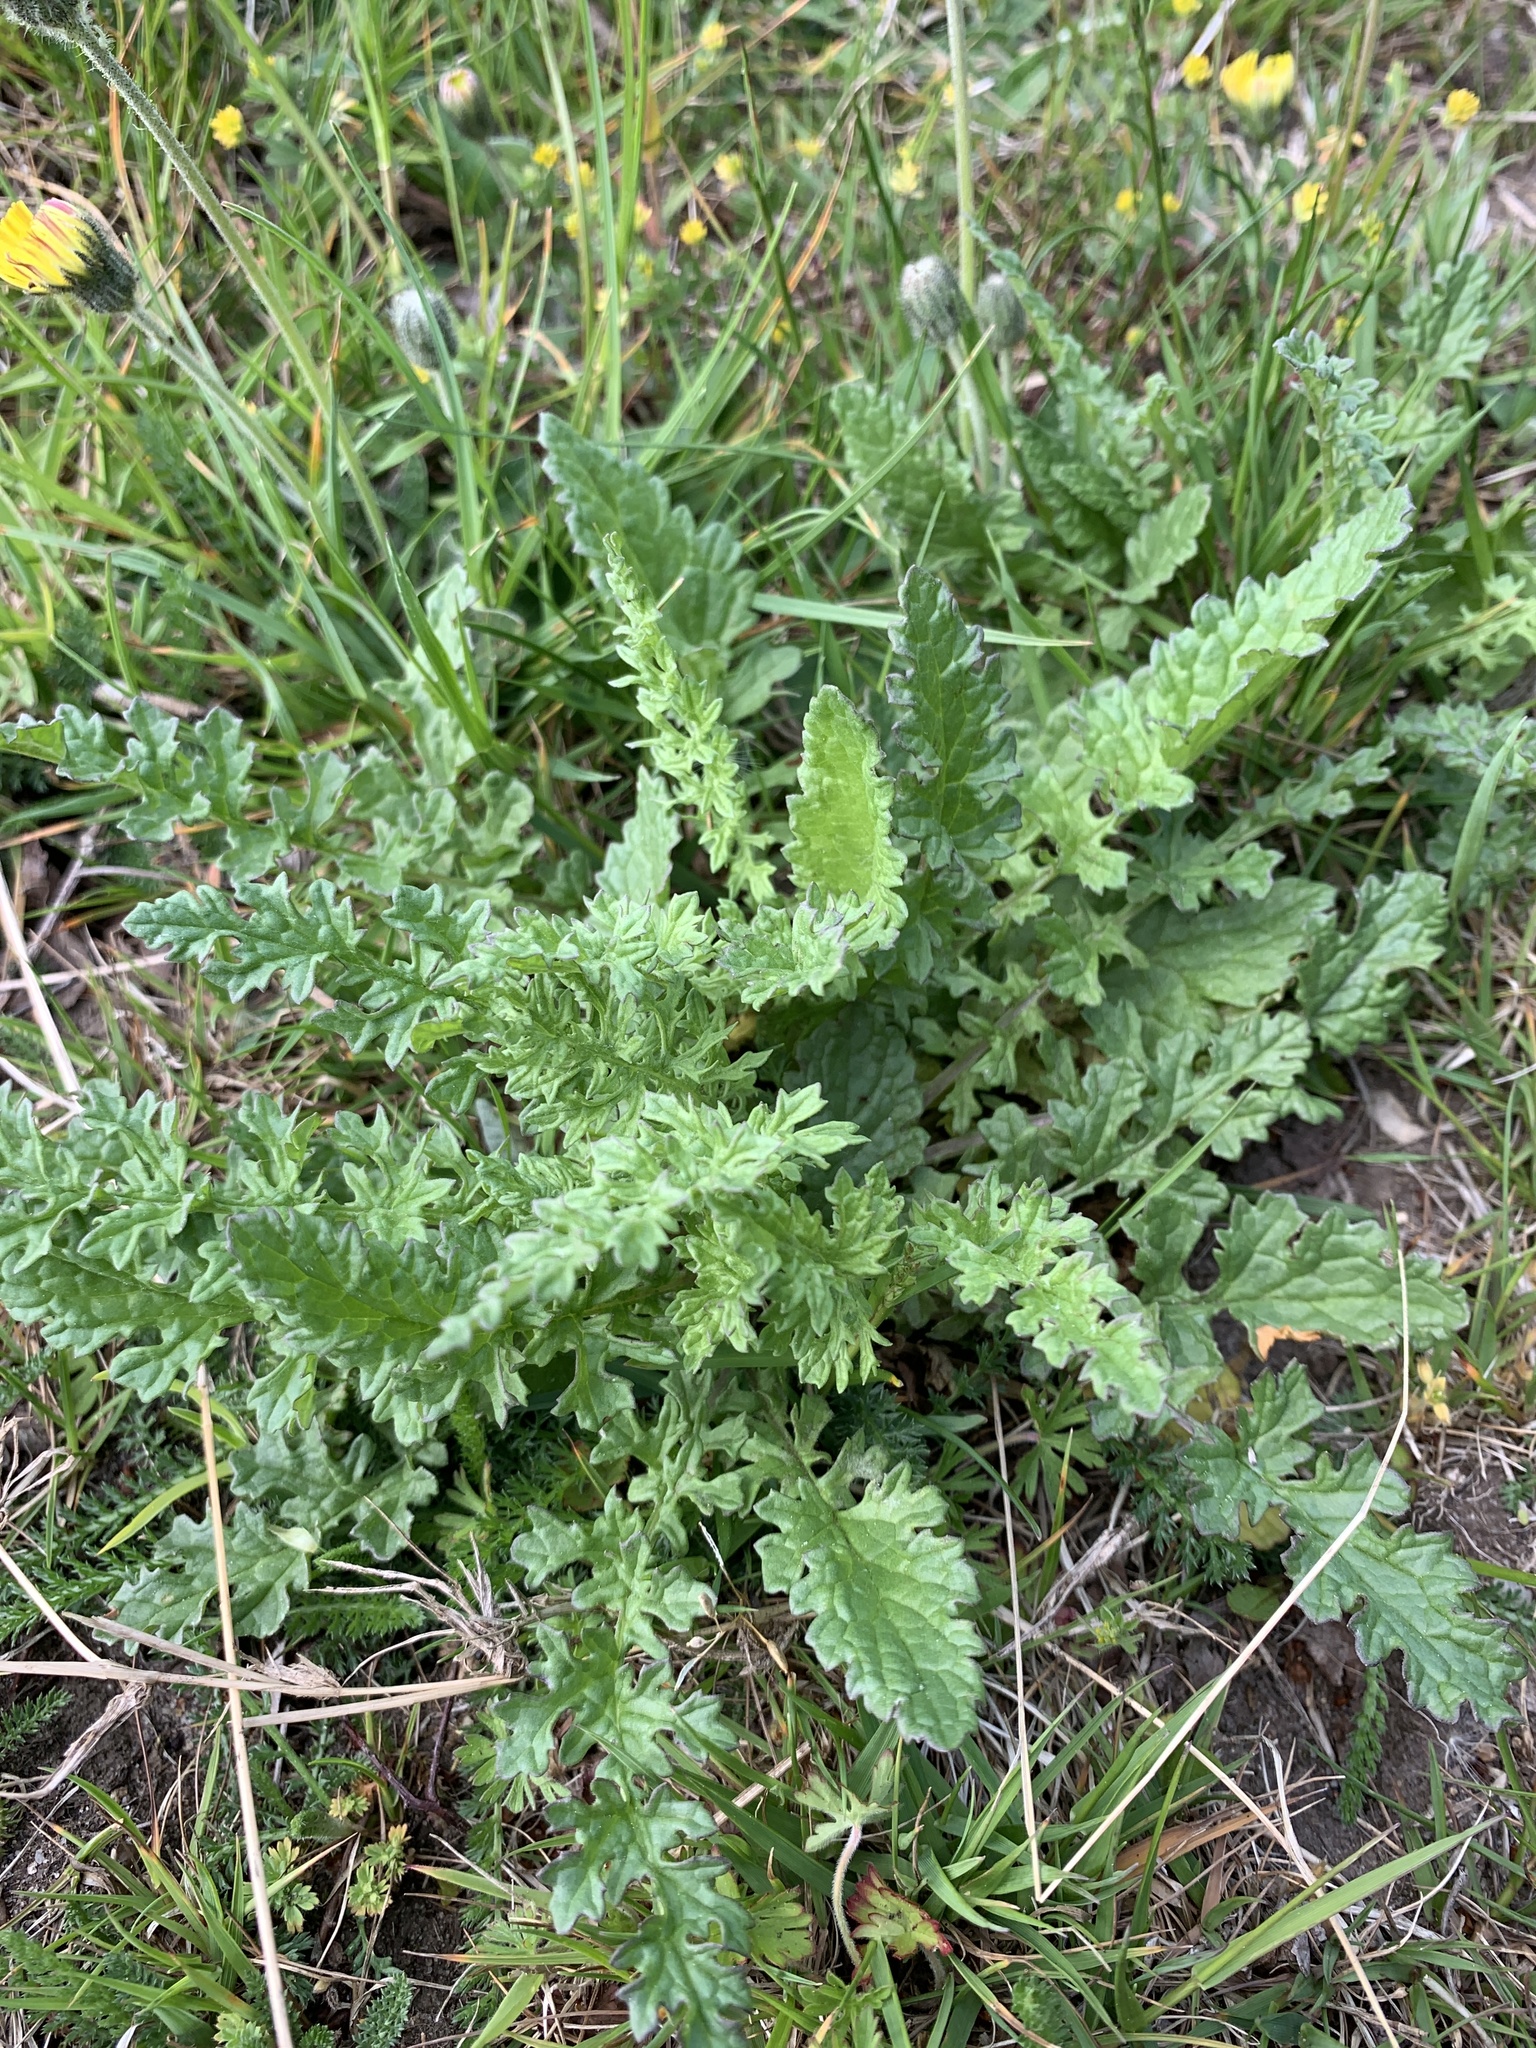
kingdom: Plantae
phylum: Tracheophyta
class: Magnoliopsida
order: Asterales
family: Asteraceae
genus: Jacobaea
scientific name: Jacobaea vulgaris
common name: Stinking willie
